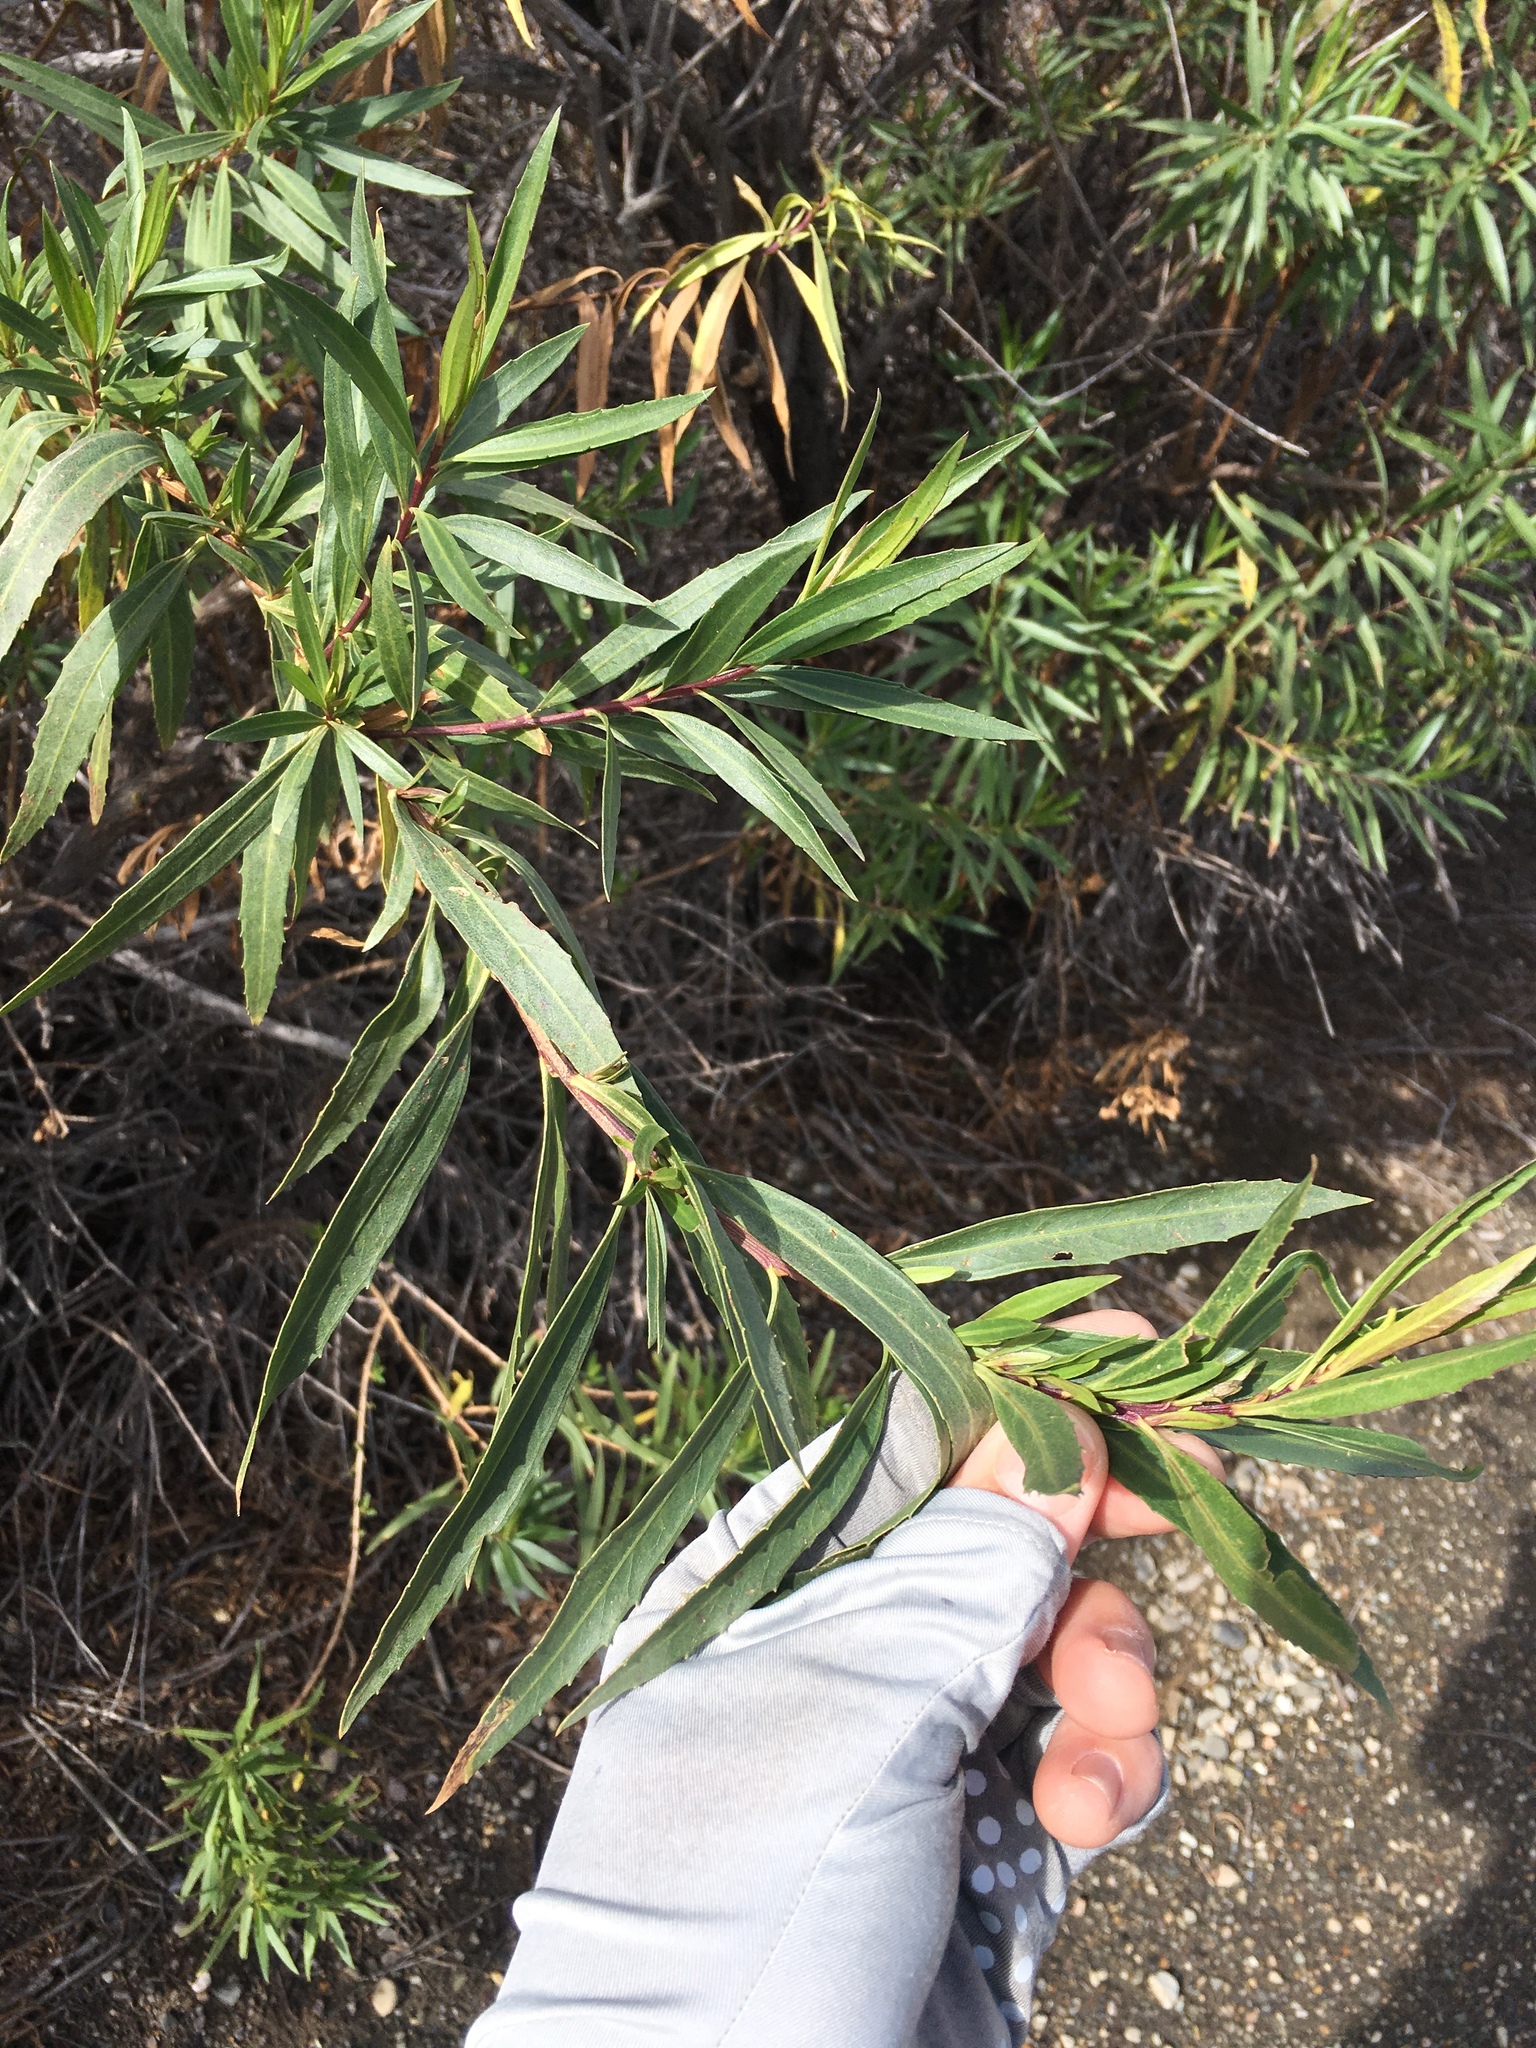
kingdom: Plantae
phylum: Tracheophyta
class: Magnoliopsida
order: Asterales
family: Asteraceae
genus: Baccharis
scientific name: Baccharis salicifolia
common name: Sticky baccharis
